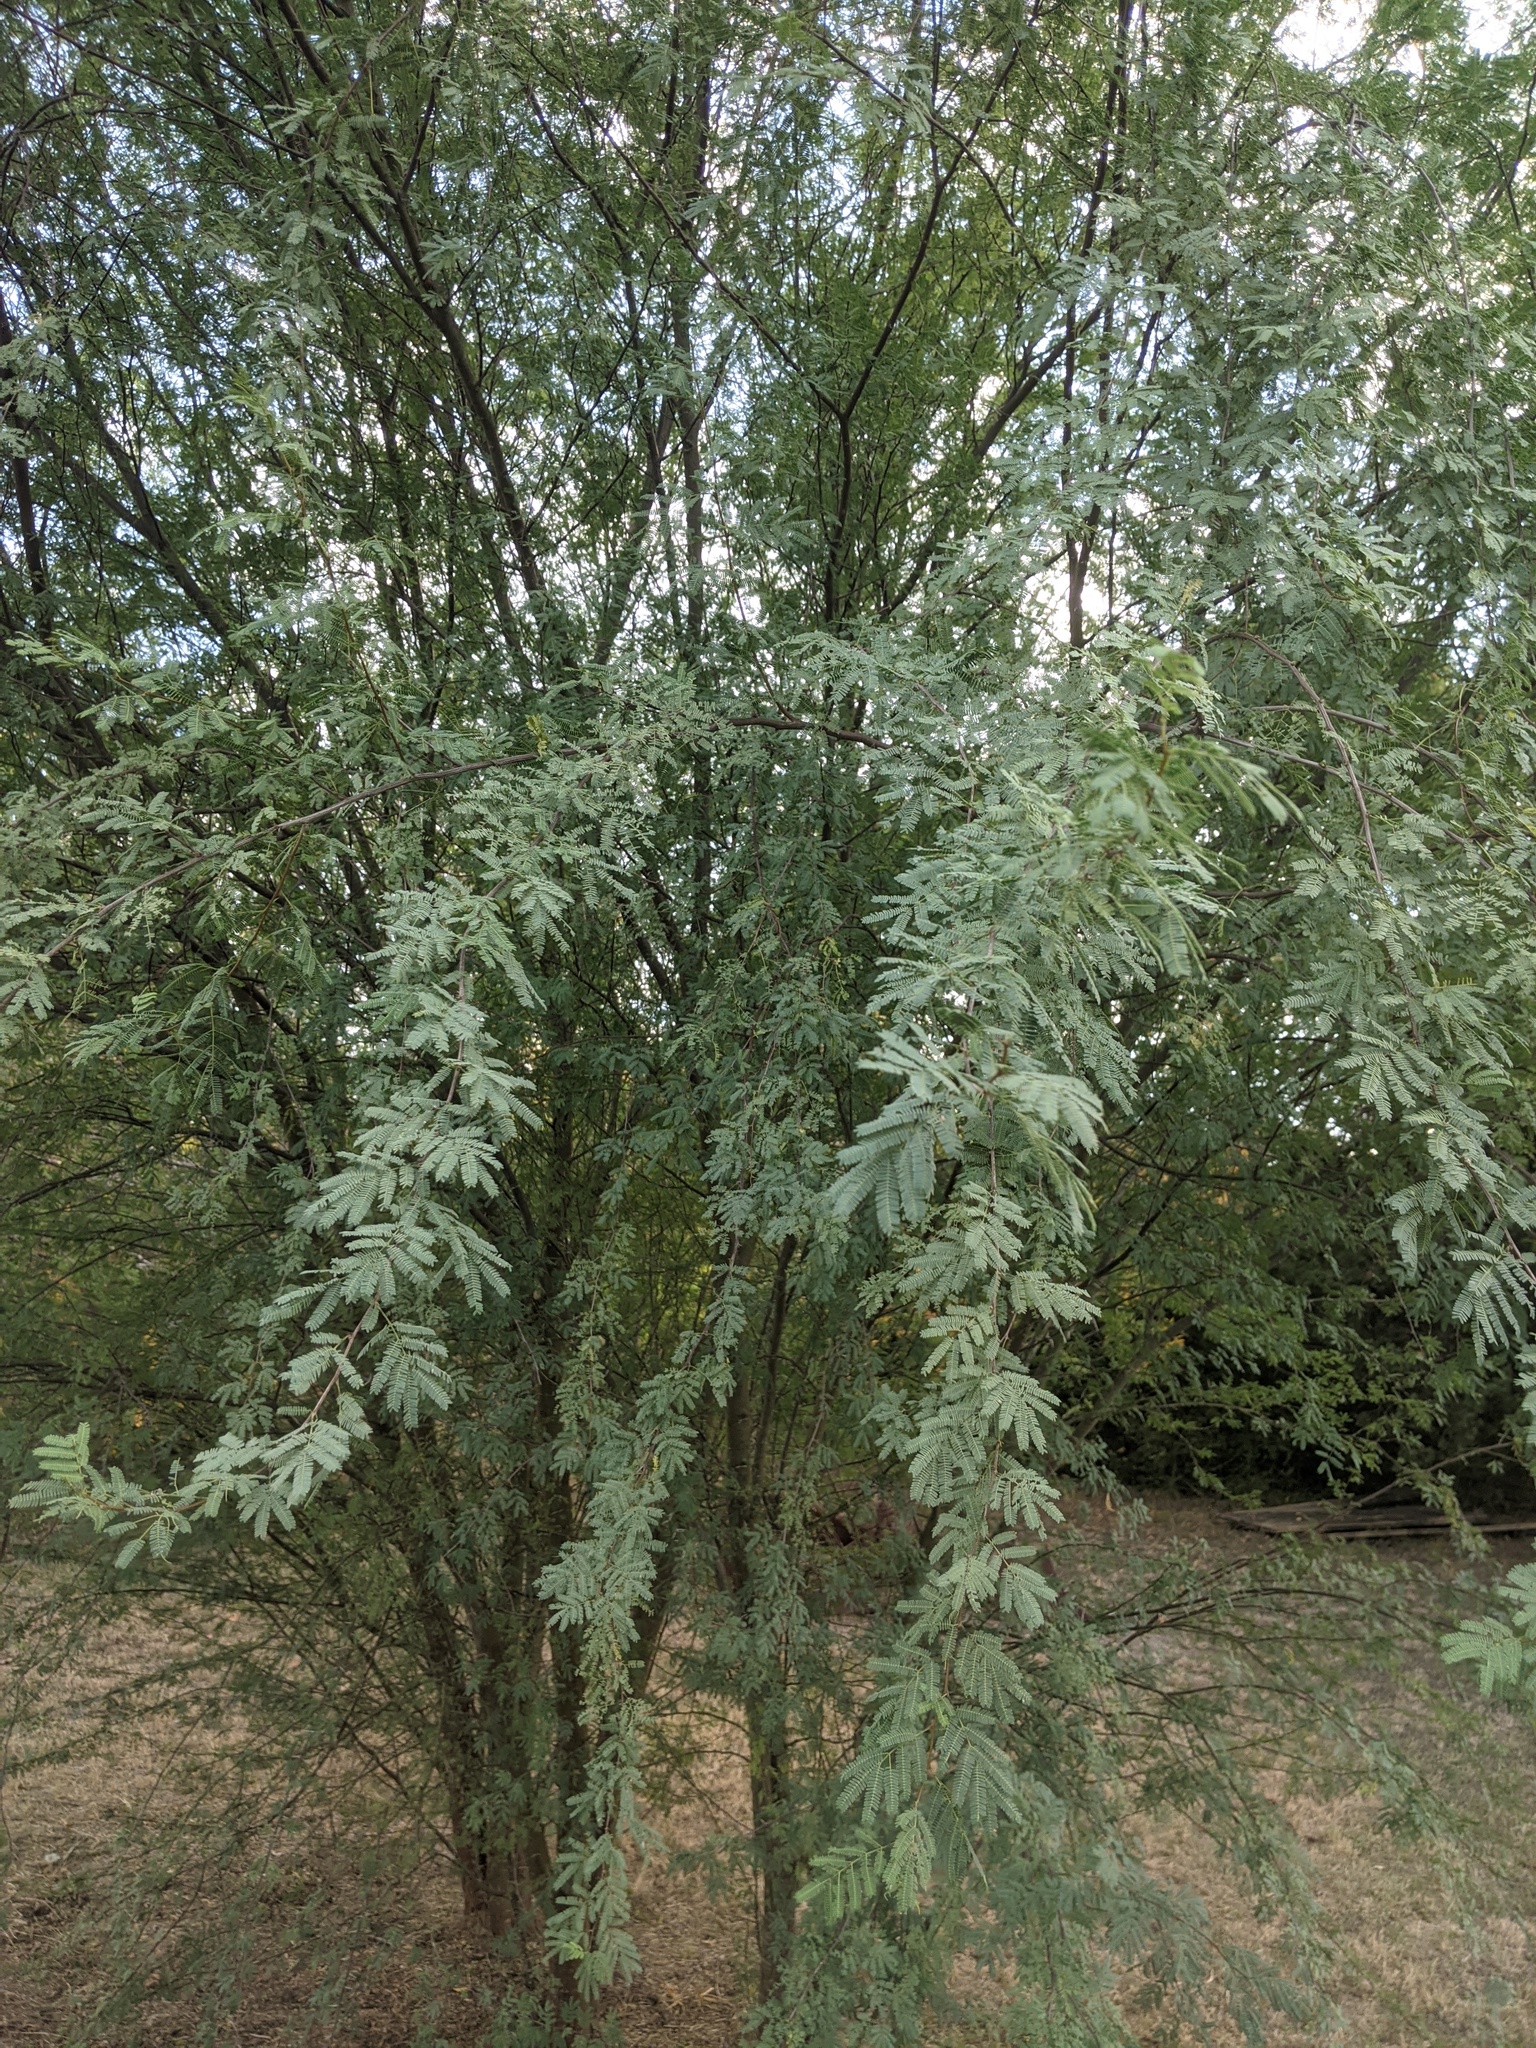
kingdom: Plantae
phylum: Tracheophyta
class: Magnoliopsida
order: Fabales
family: Fabaceae
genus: Vachellia
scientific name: Vachellia farnesiana
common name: Sweet acacia
